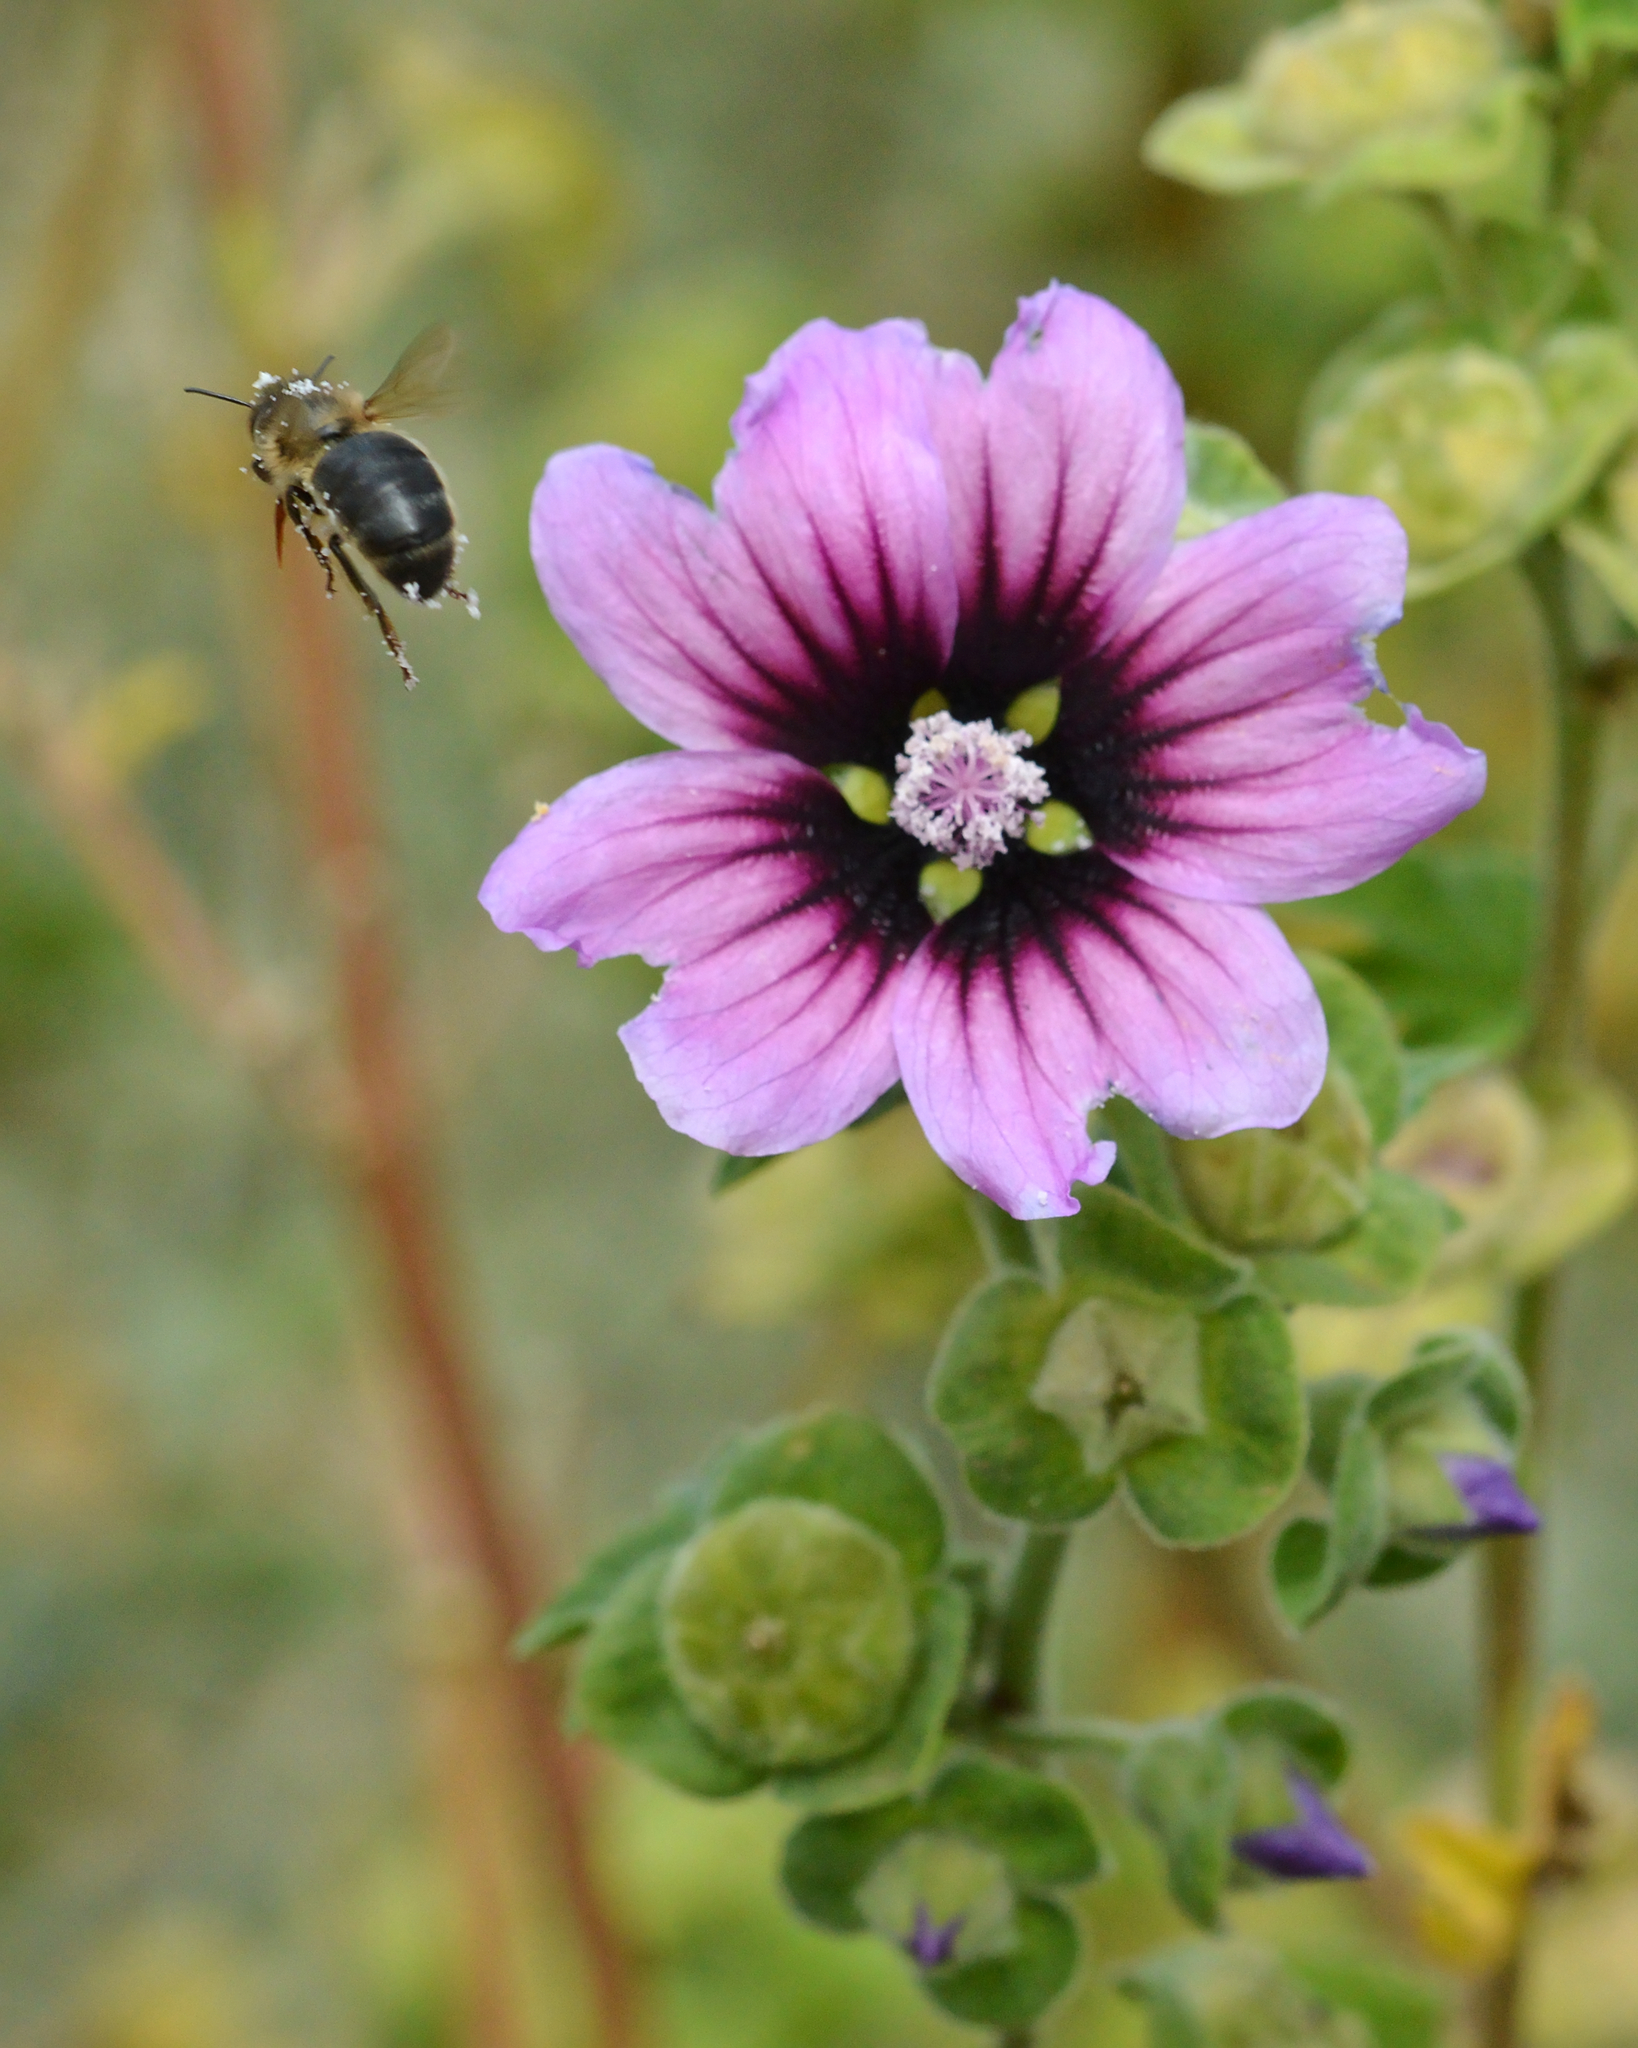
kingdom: Animalia
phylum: Arthropoda
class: Insecta
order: Hymenoptera
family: Apidae
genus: Apis
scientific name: Apis mellifera
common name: Honey bee
